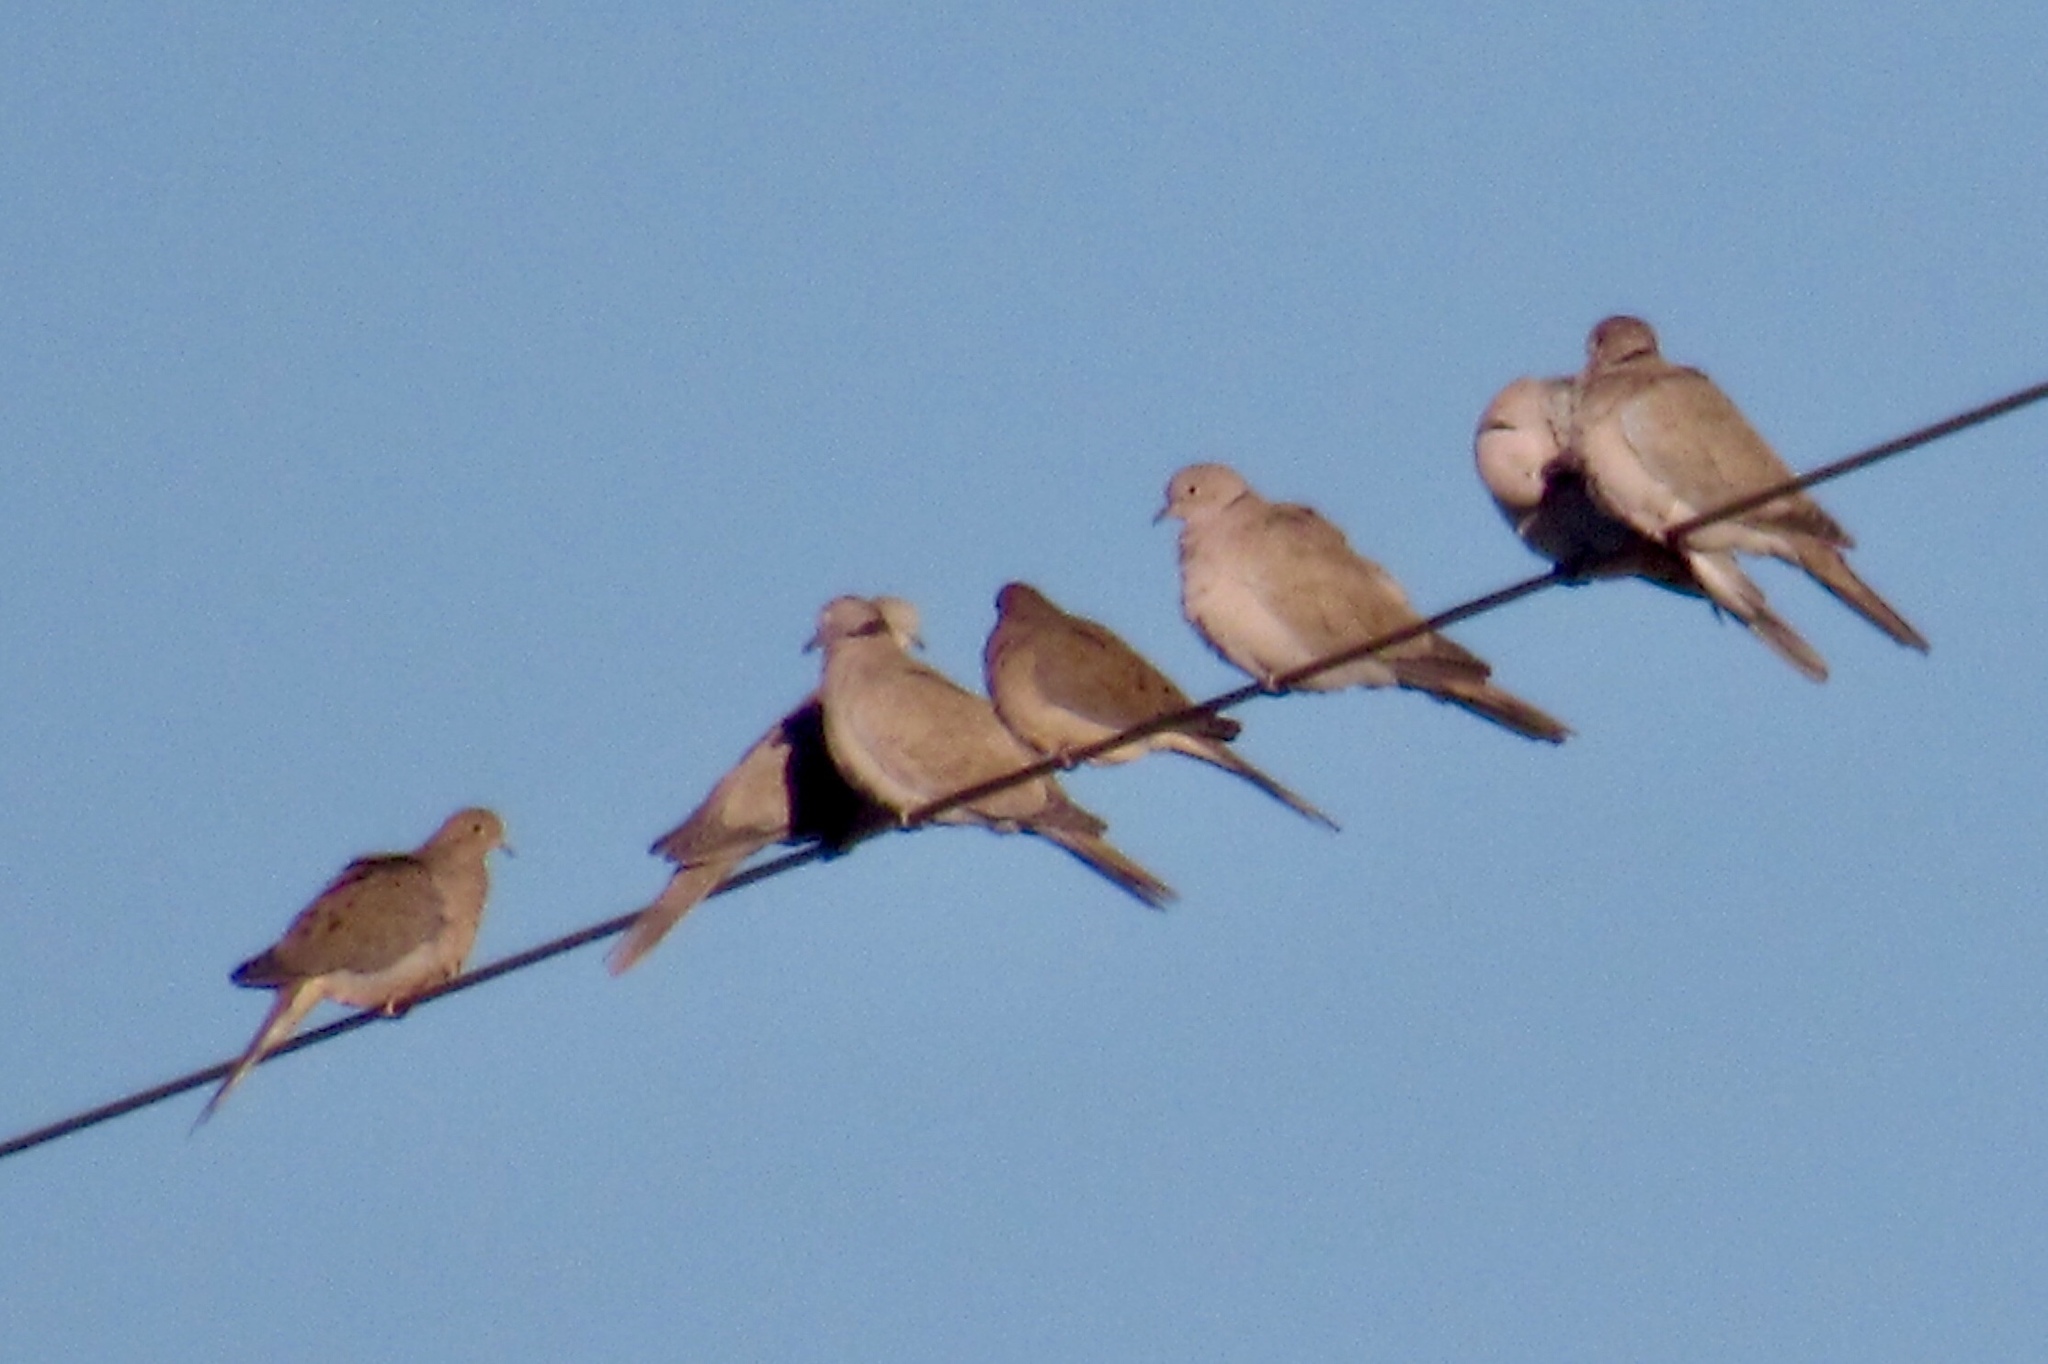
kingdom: Animalia
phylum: Chordata
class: Aves
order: Columbiformes
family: Columbidae
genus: Zenaida
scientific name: Zenaida macroura
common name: Mourning dove
